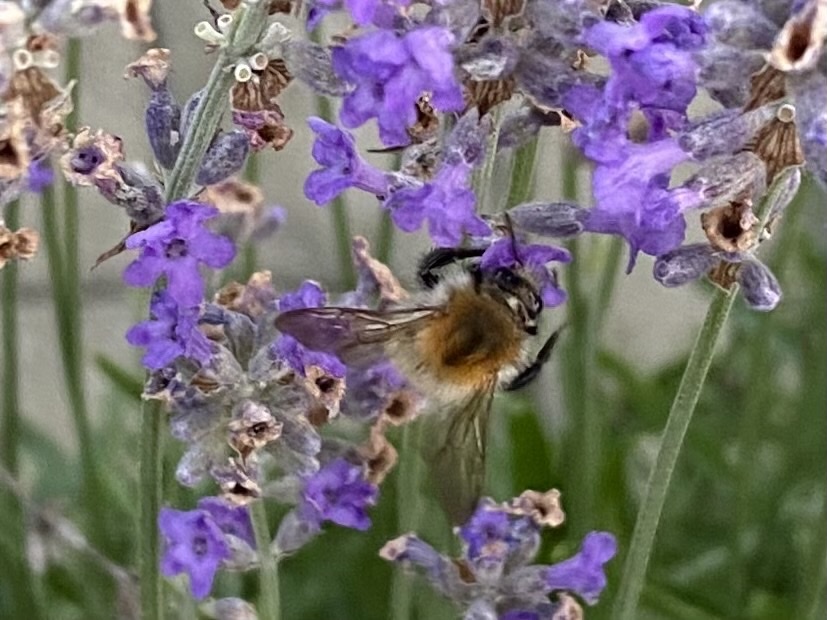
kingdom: Animalia
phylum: Arthropoda
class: Insecta
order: Hymenoptera
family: Apidae
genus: Bombus
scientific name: Bombus pascuorum
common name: Common carder bee
